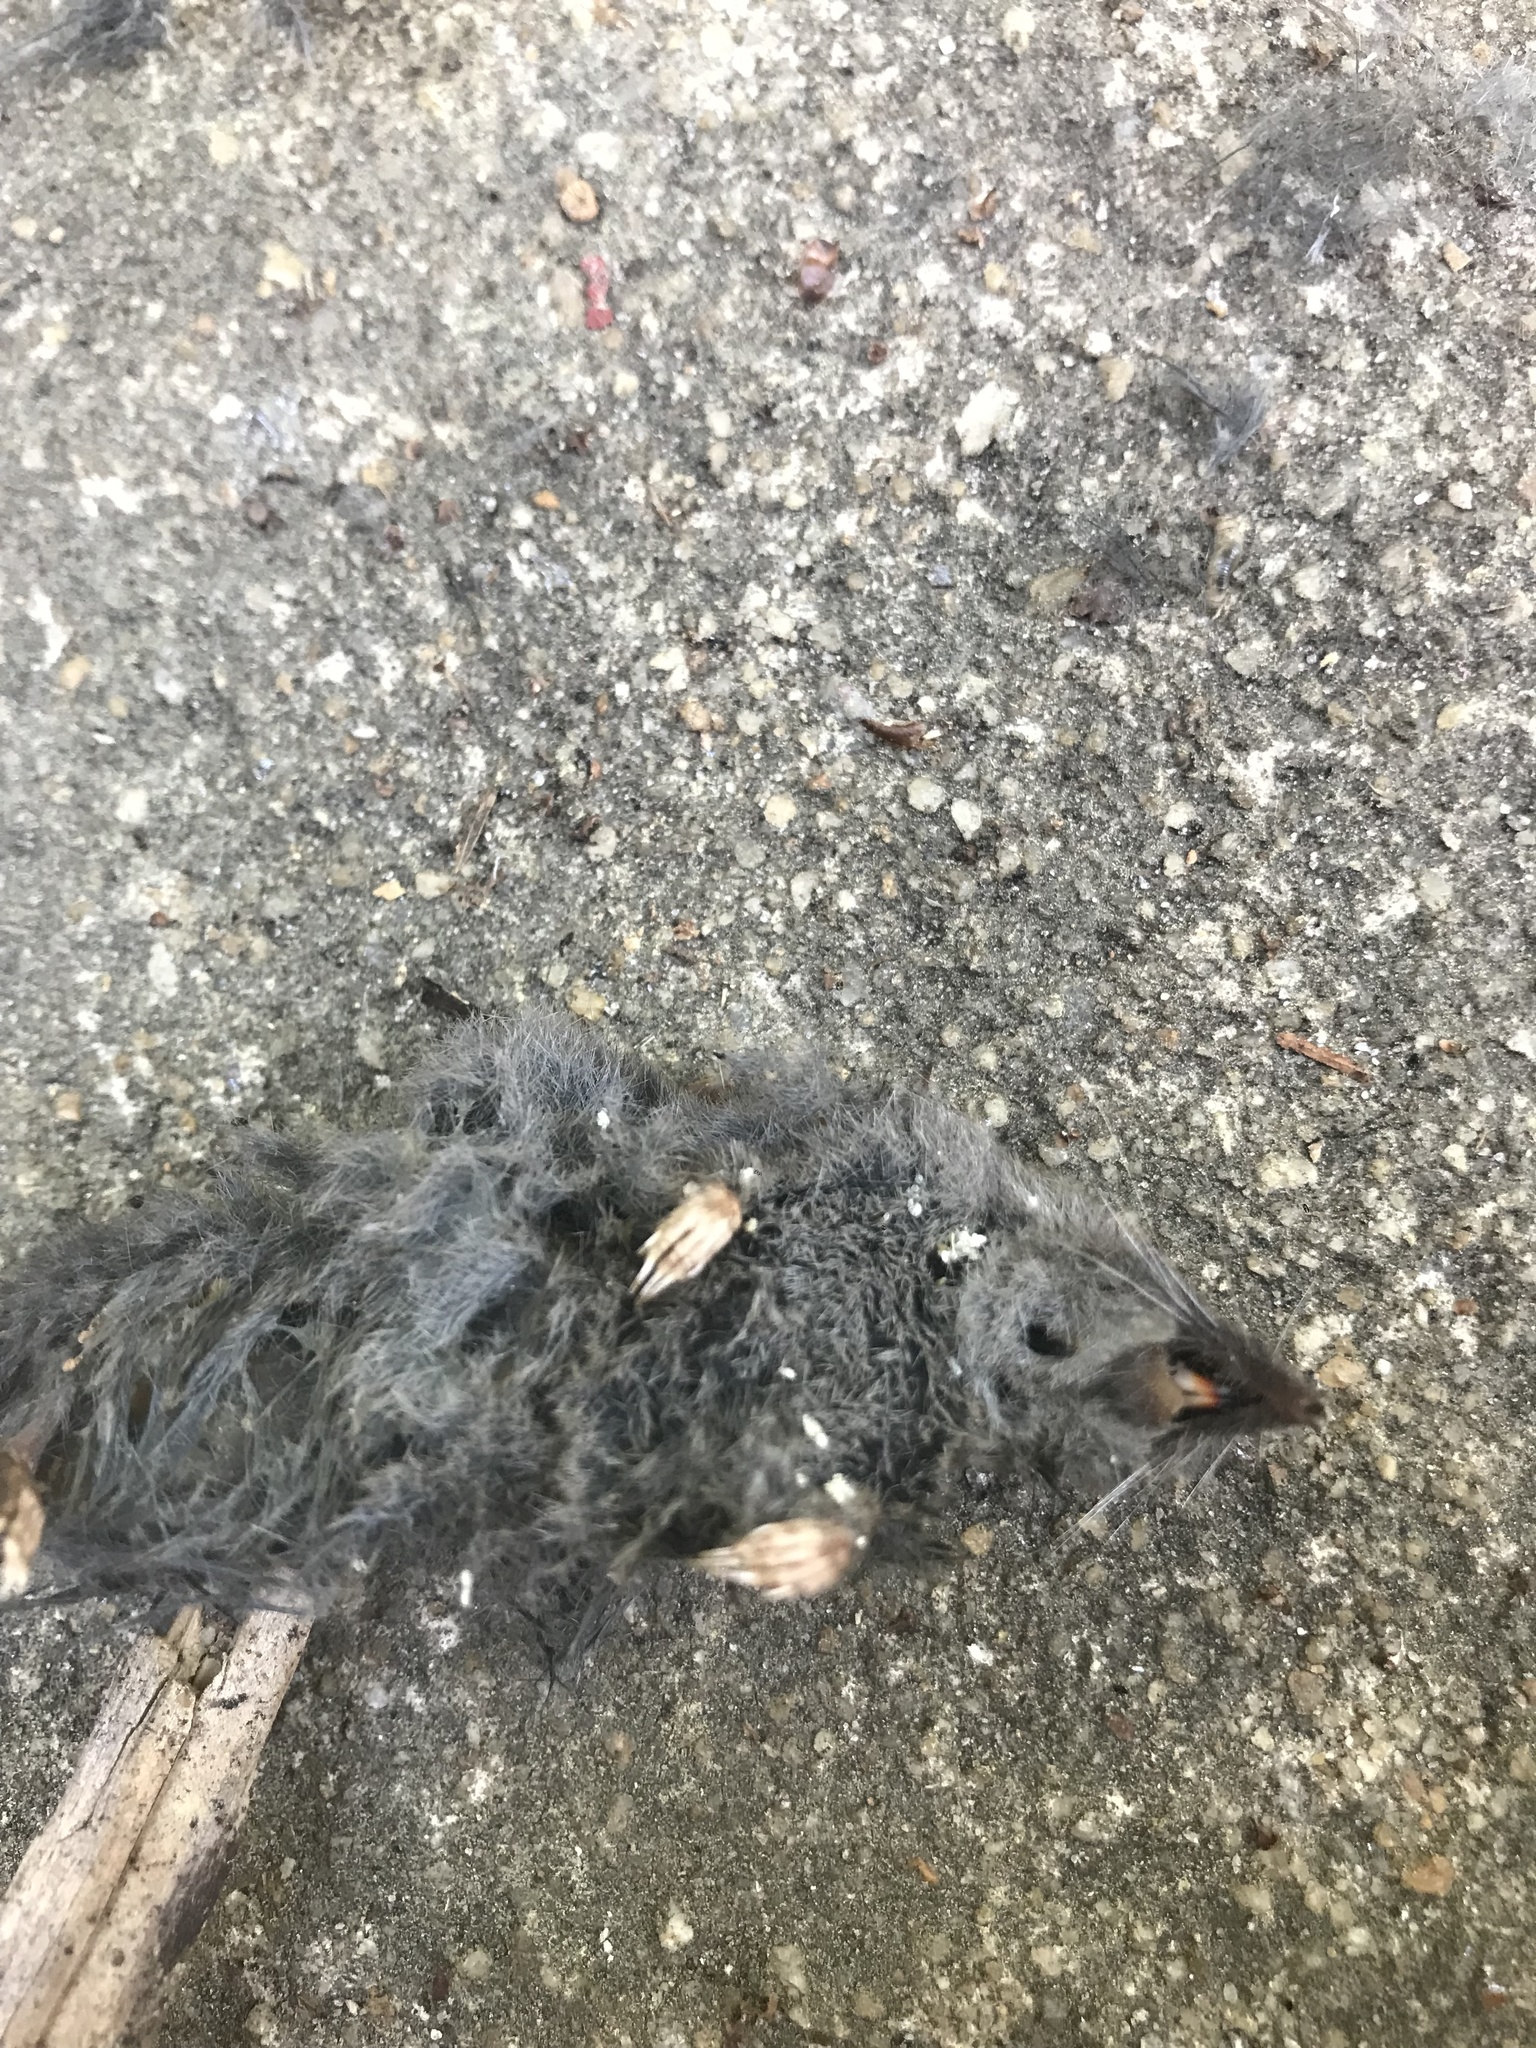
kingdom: Animalia
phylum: Chordata
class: Mammalia
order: Soricomorpha
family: Soricidae
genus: Blarina
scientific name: Blarina carolinensis
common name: Southern short-tailed shrew
